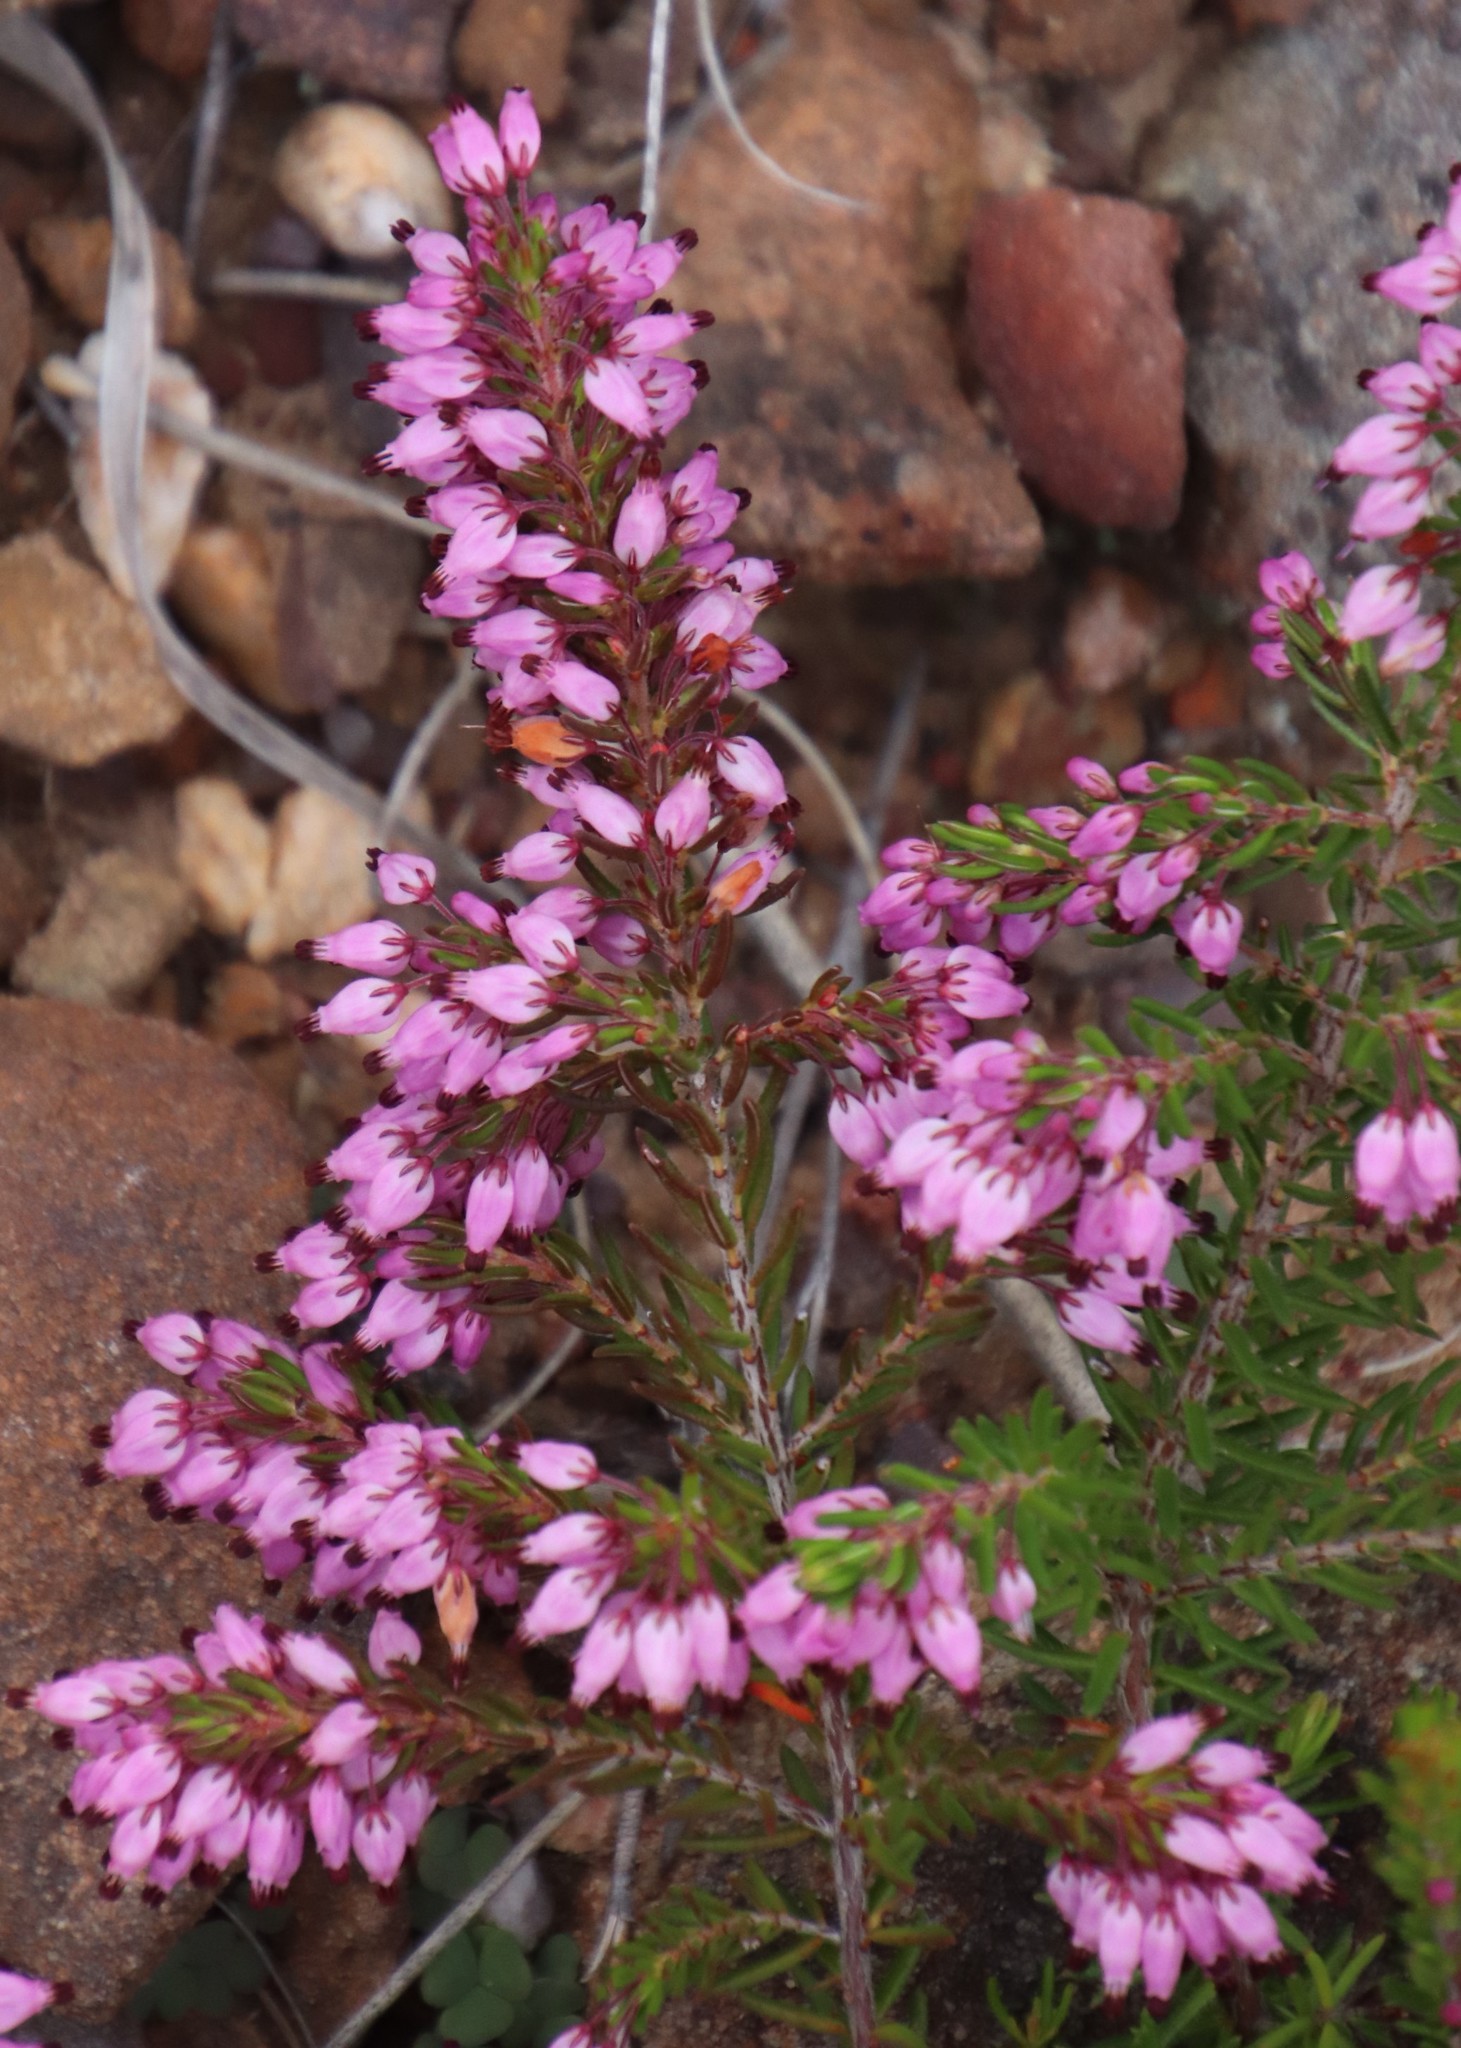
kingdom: Plantae
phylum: Tracheophyta
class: Magnoliopsida
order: Ericales
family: Ericaceae
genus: Erica
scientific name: Erica nudiflora
